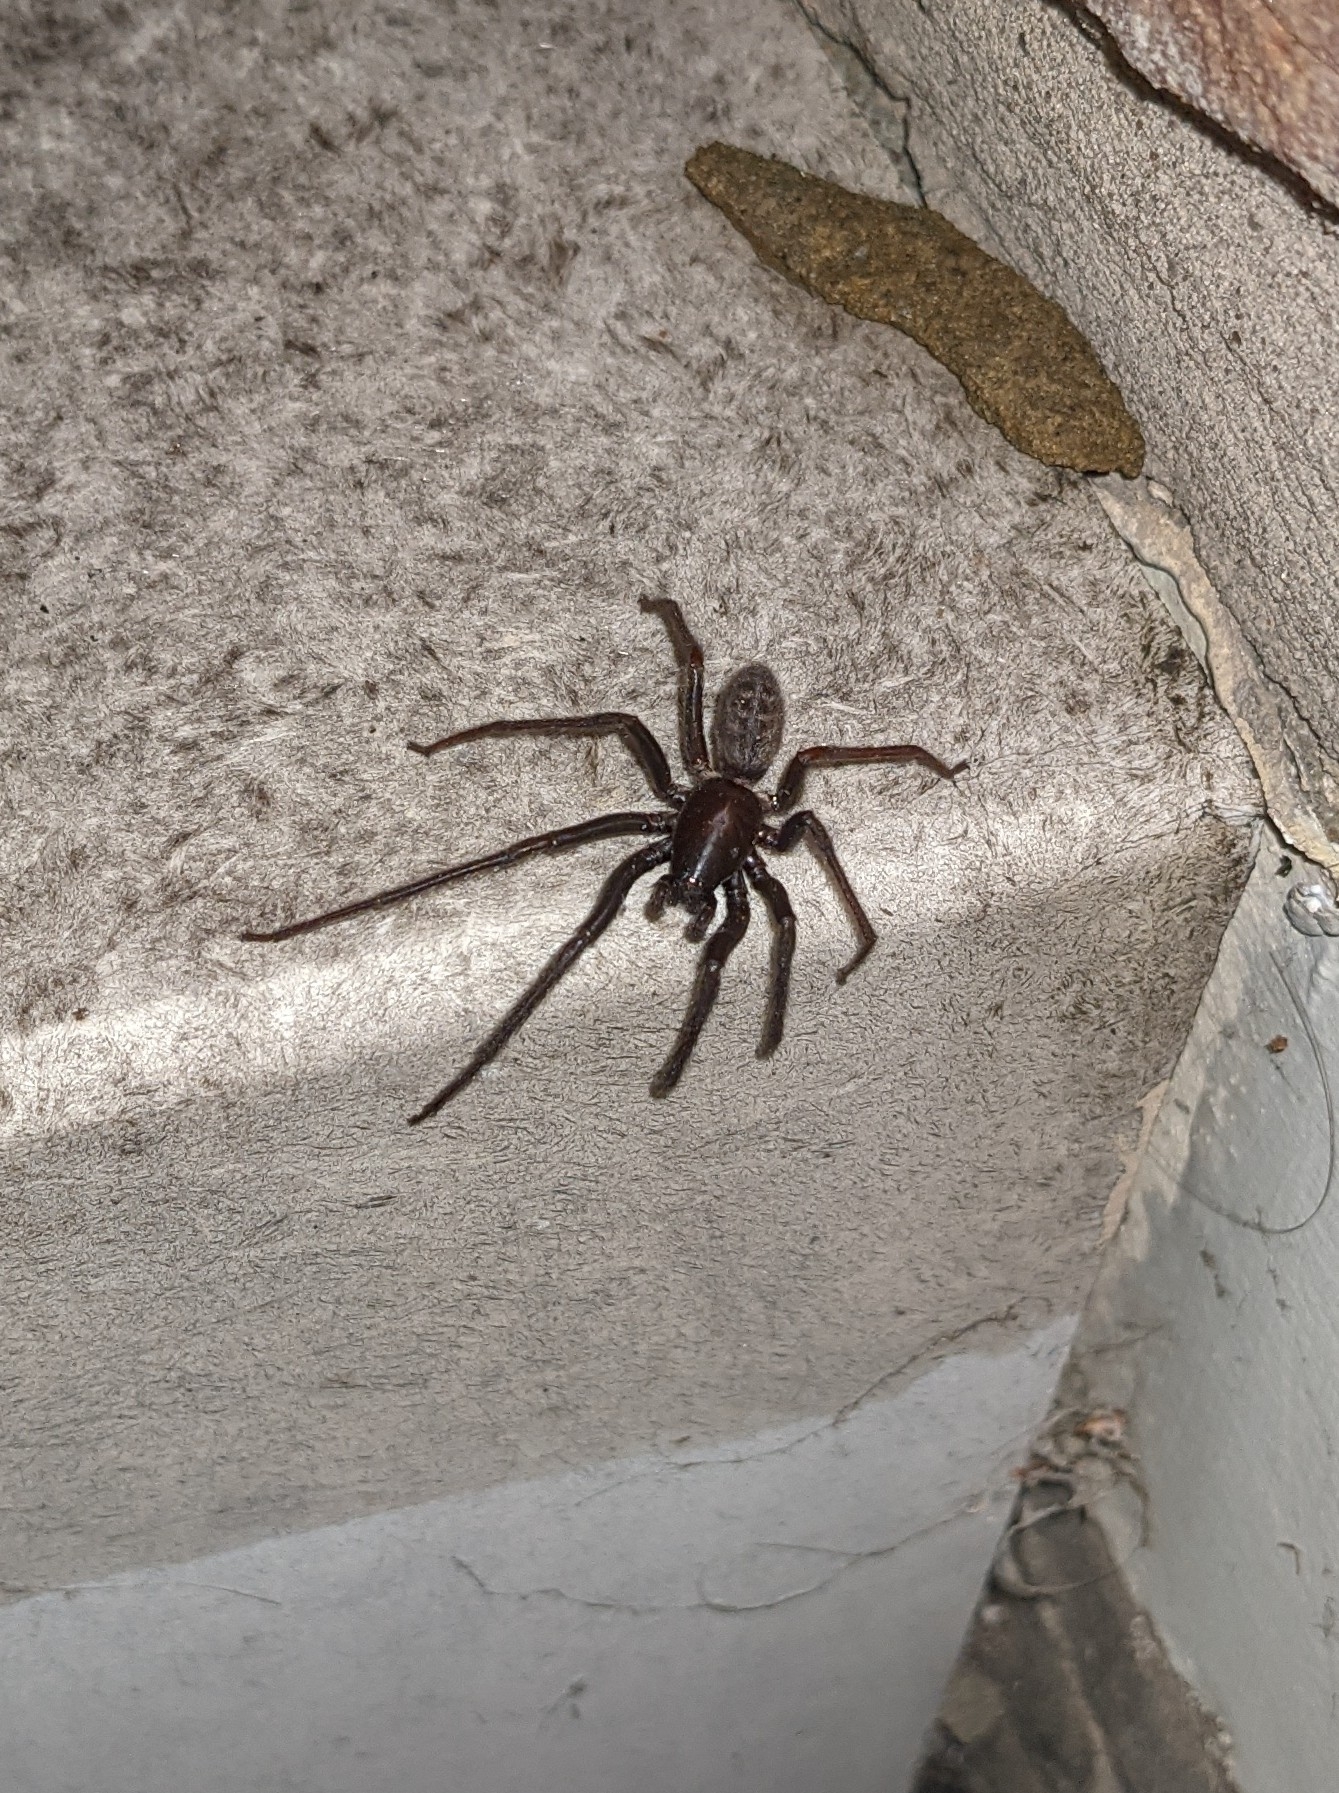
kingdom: Animalia
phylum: Arthropoda
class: Arachnida
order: Araneae
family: Segestriidae
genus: Segestria
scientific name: Segestria florentina
